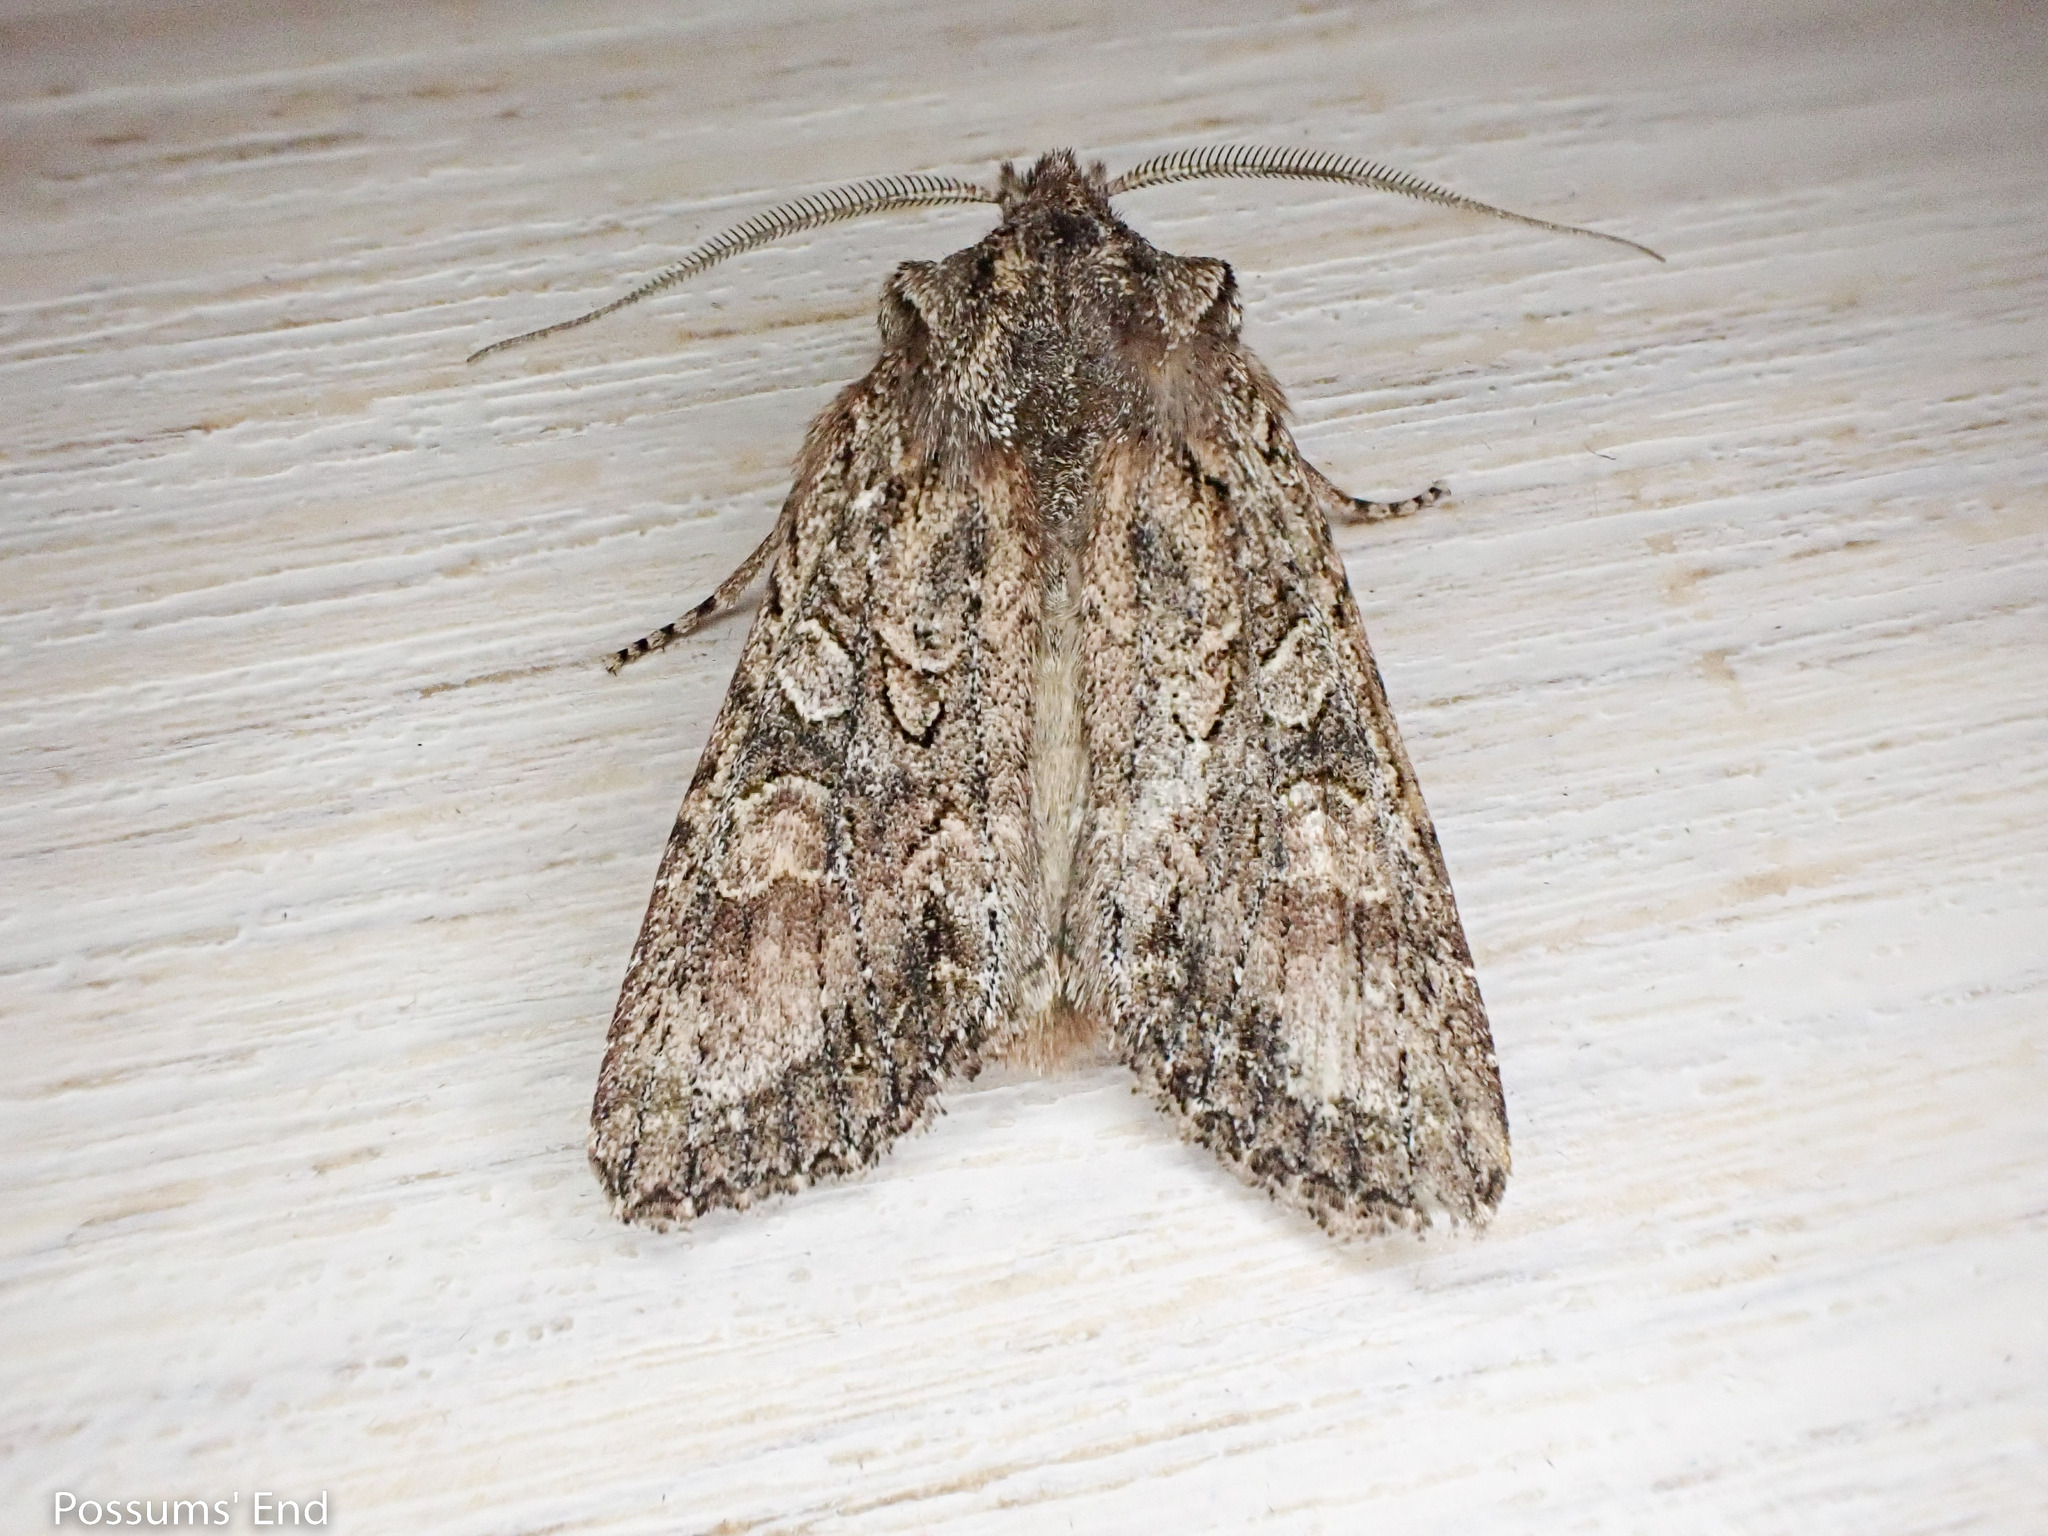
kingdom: Animalia
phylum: Arthropoda
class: Insecta
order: Lepidoptera
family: Noctuidae
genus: Ichneutica
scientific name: Ichneutica mutans
